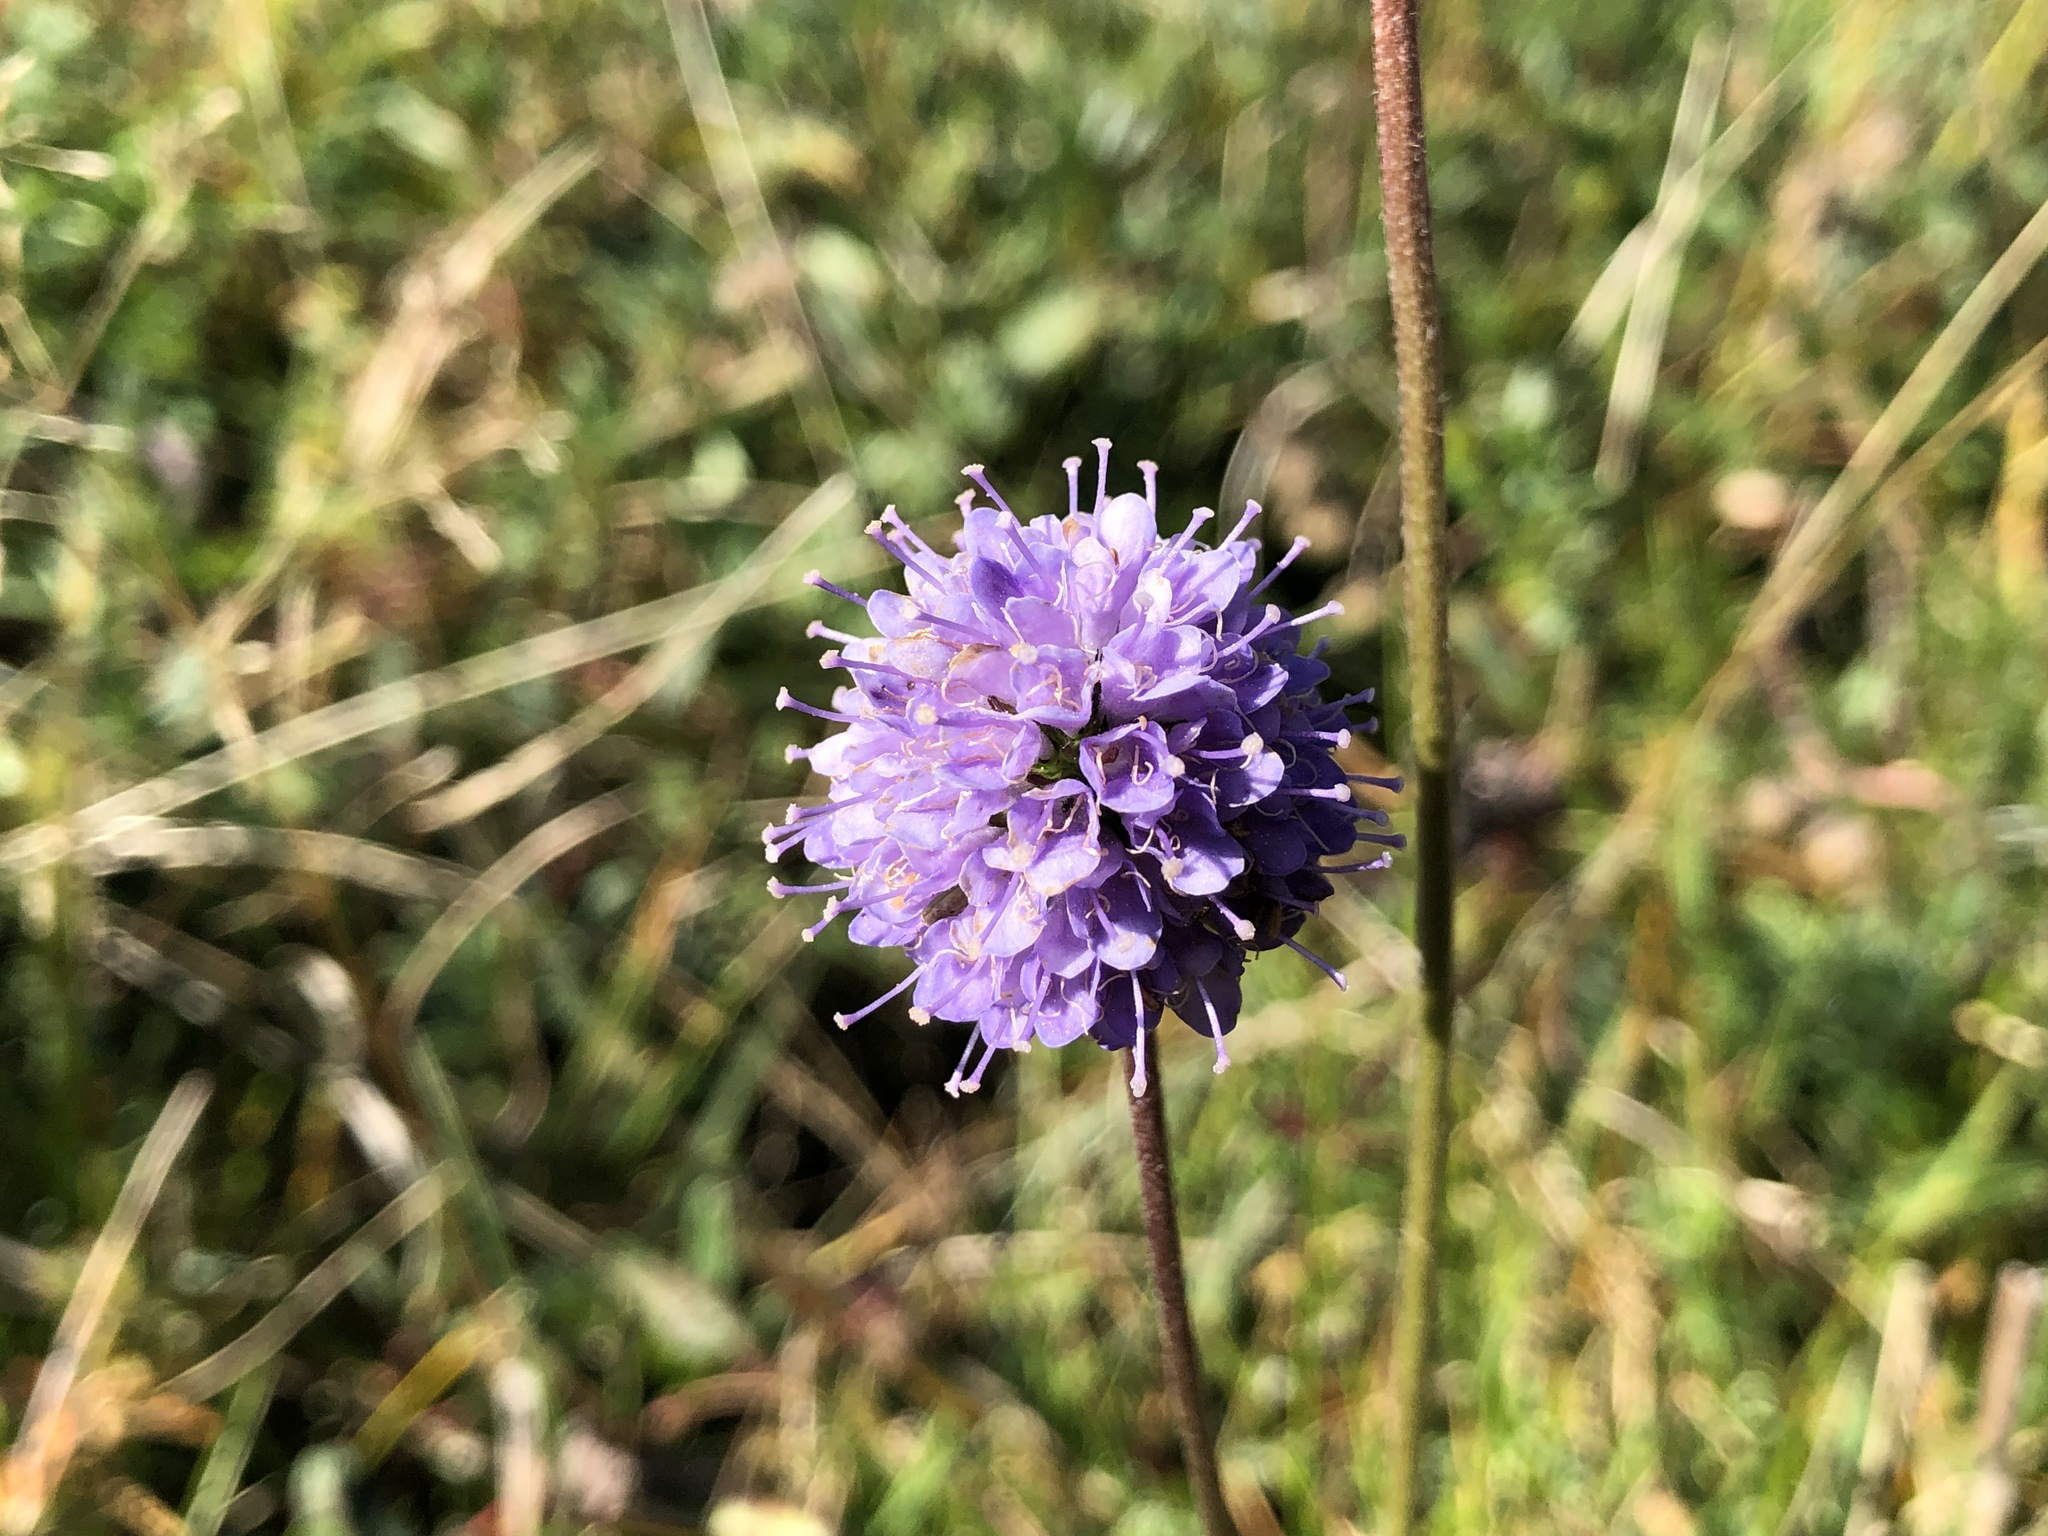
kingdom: Plantae
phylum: Tracheophyta
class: Magnoliopsida
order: Dipsacales
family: Caprifoliaceae
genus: Succisa
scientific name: Succisa pratensis
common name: Devil's-bit
